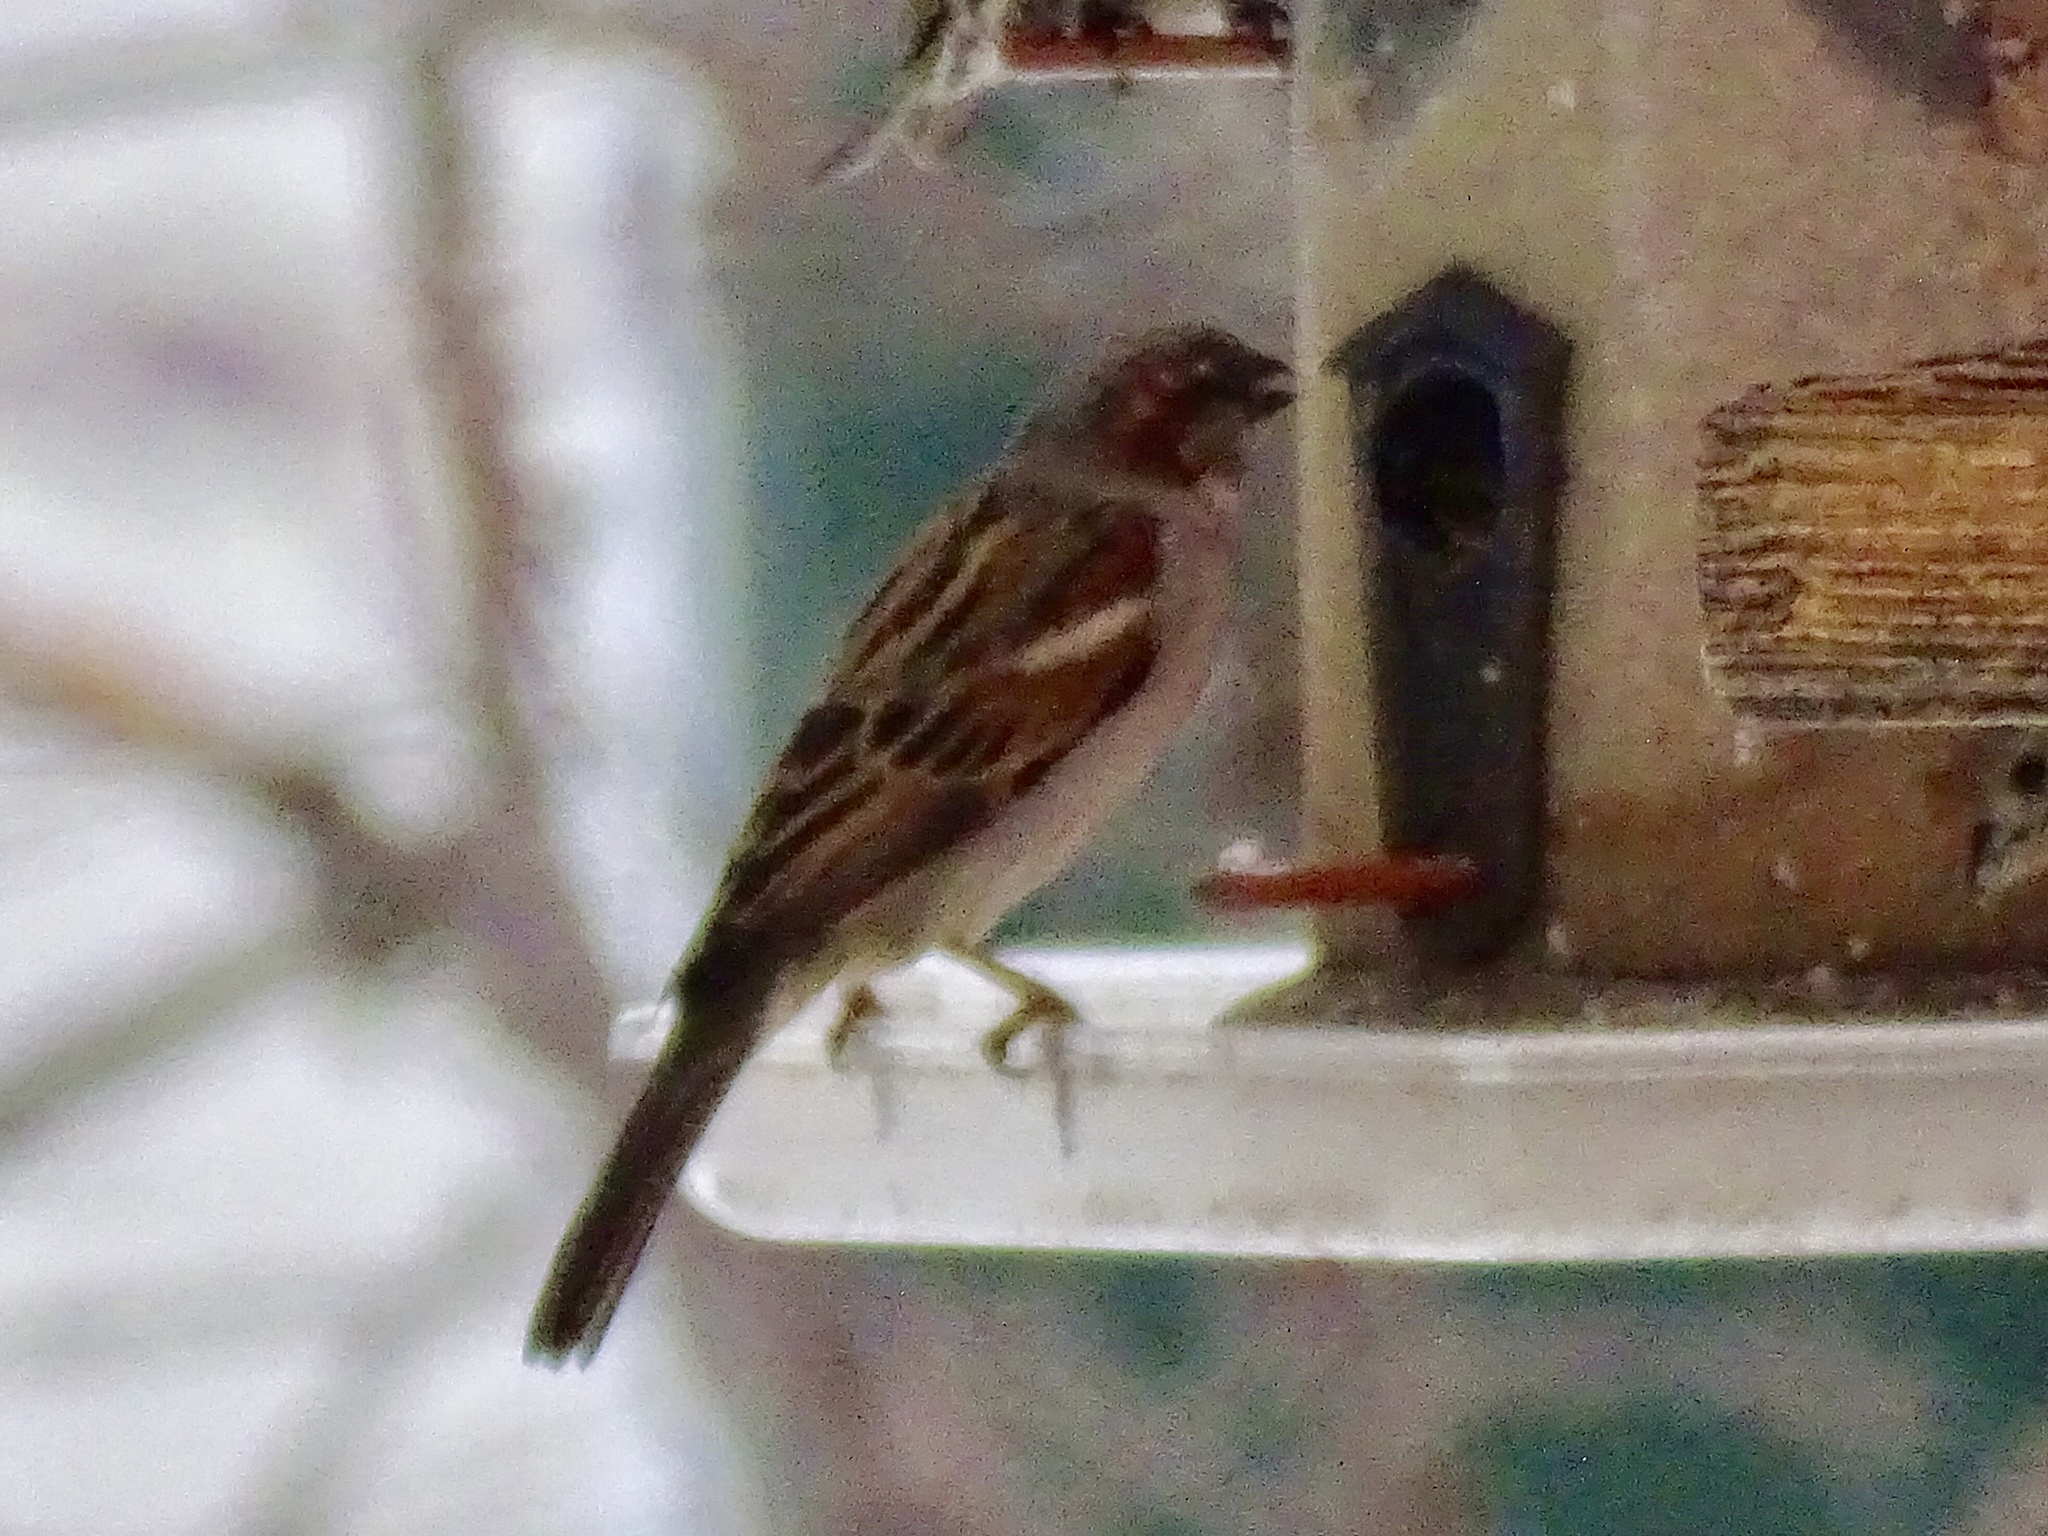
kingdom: Animalia
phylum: Chordata
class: Aves
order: Passeriformes
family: Passeridae
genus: Passer
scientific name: Passer domesticus
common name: House sparrow
